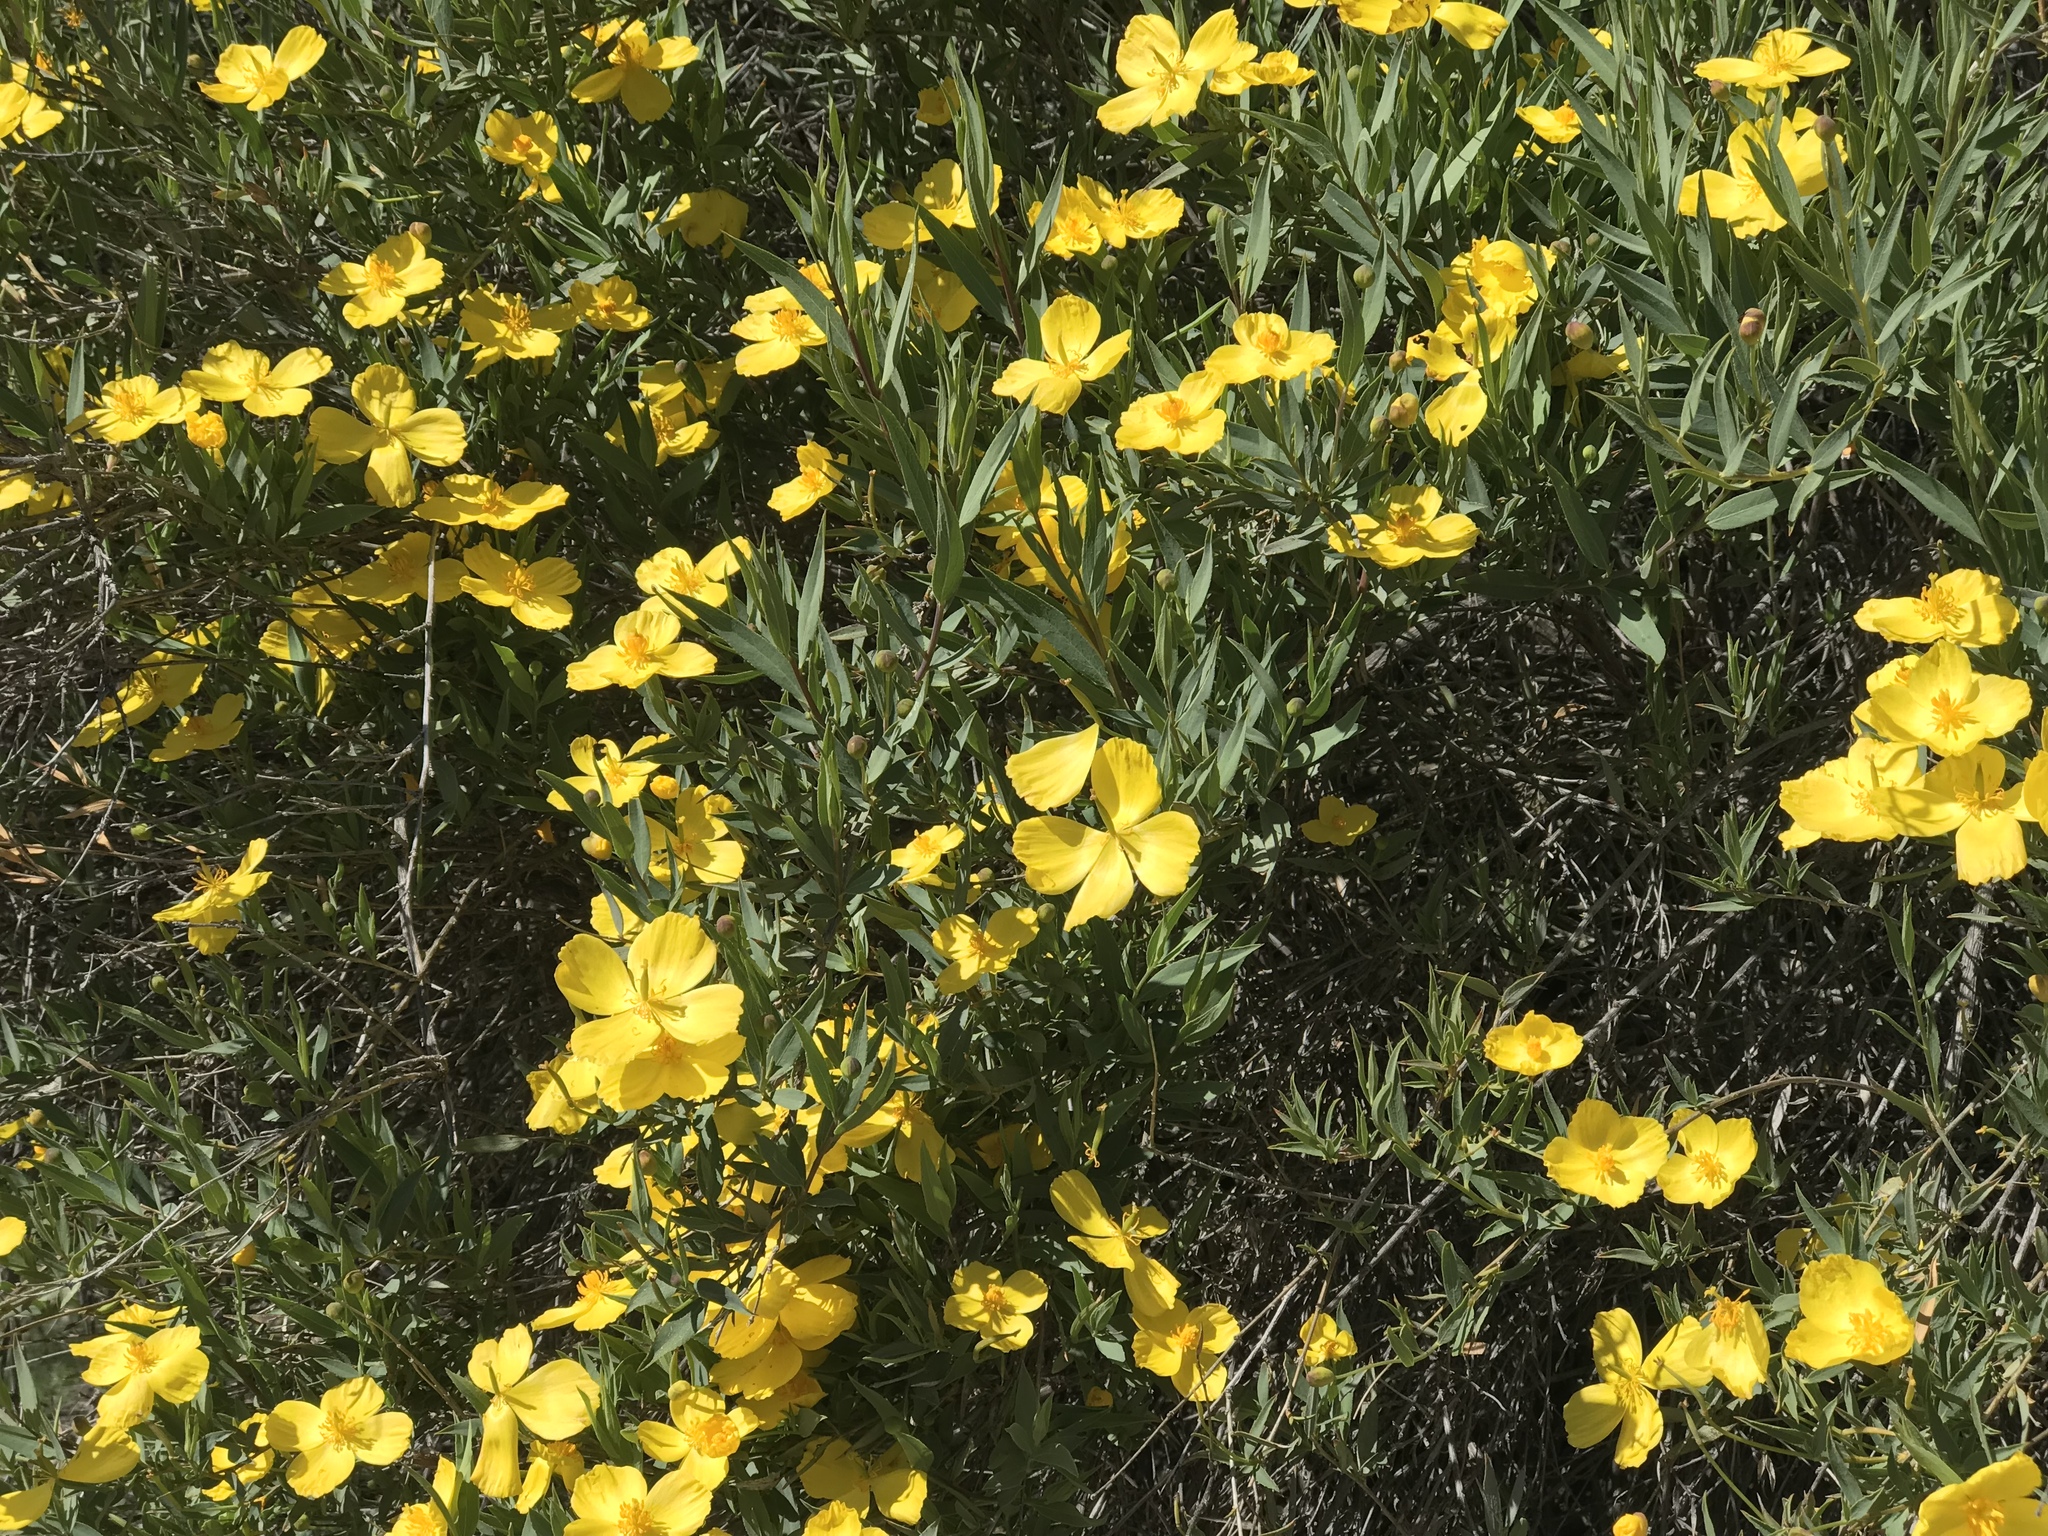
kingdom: Plantae
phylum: Tracheophyta
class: Magnoliopsida
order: Ranunculales
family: Papaveraceae
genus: Dendromecon
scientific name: Dendromecon rigida
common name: Tree poppy
